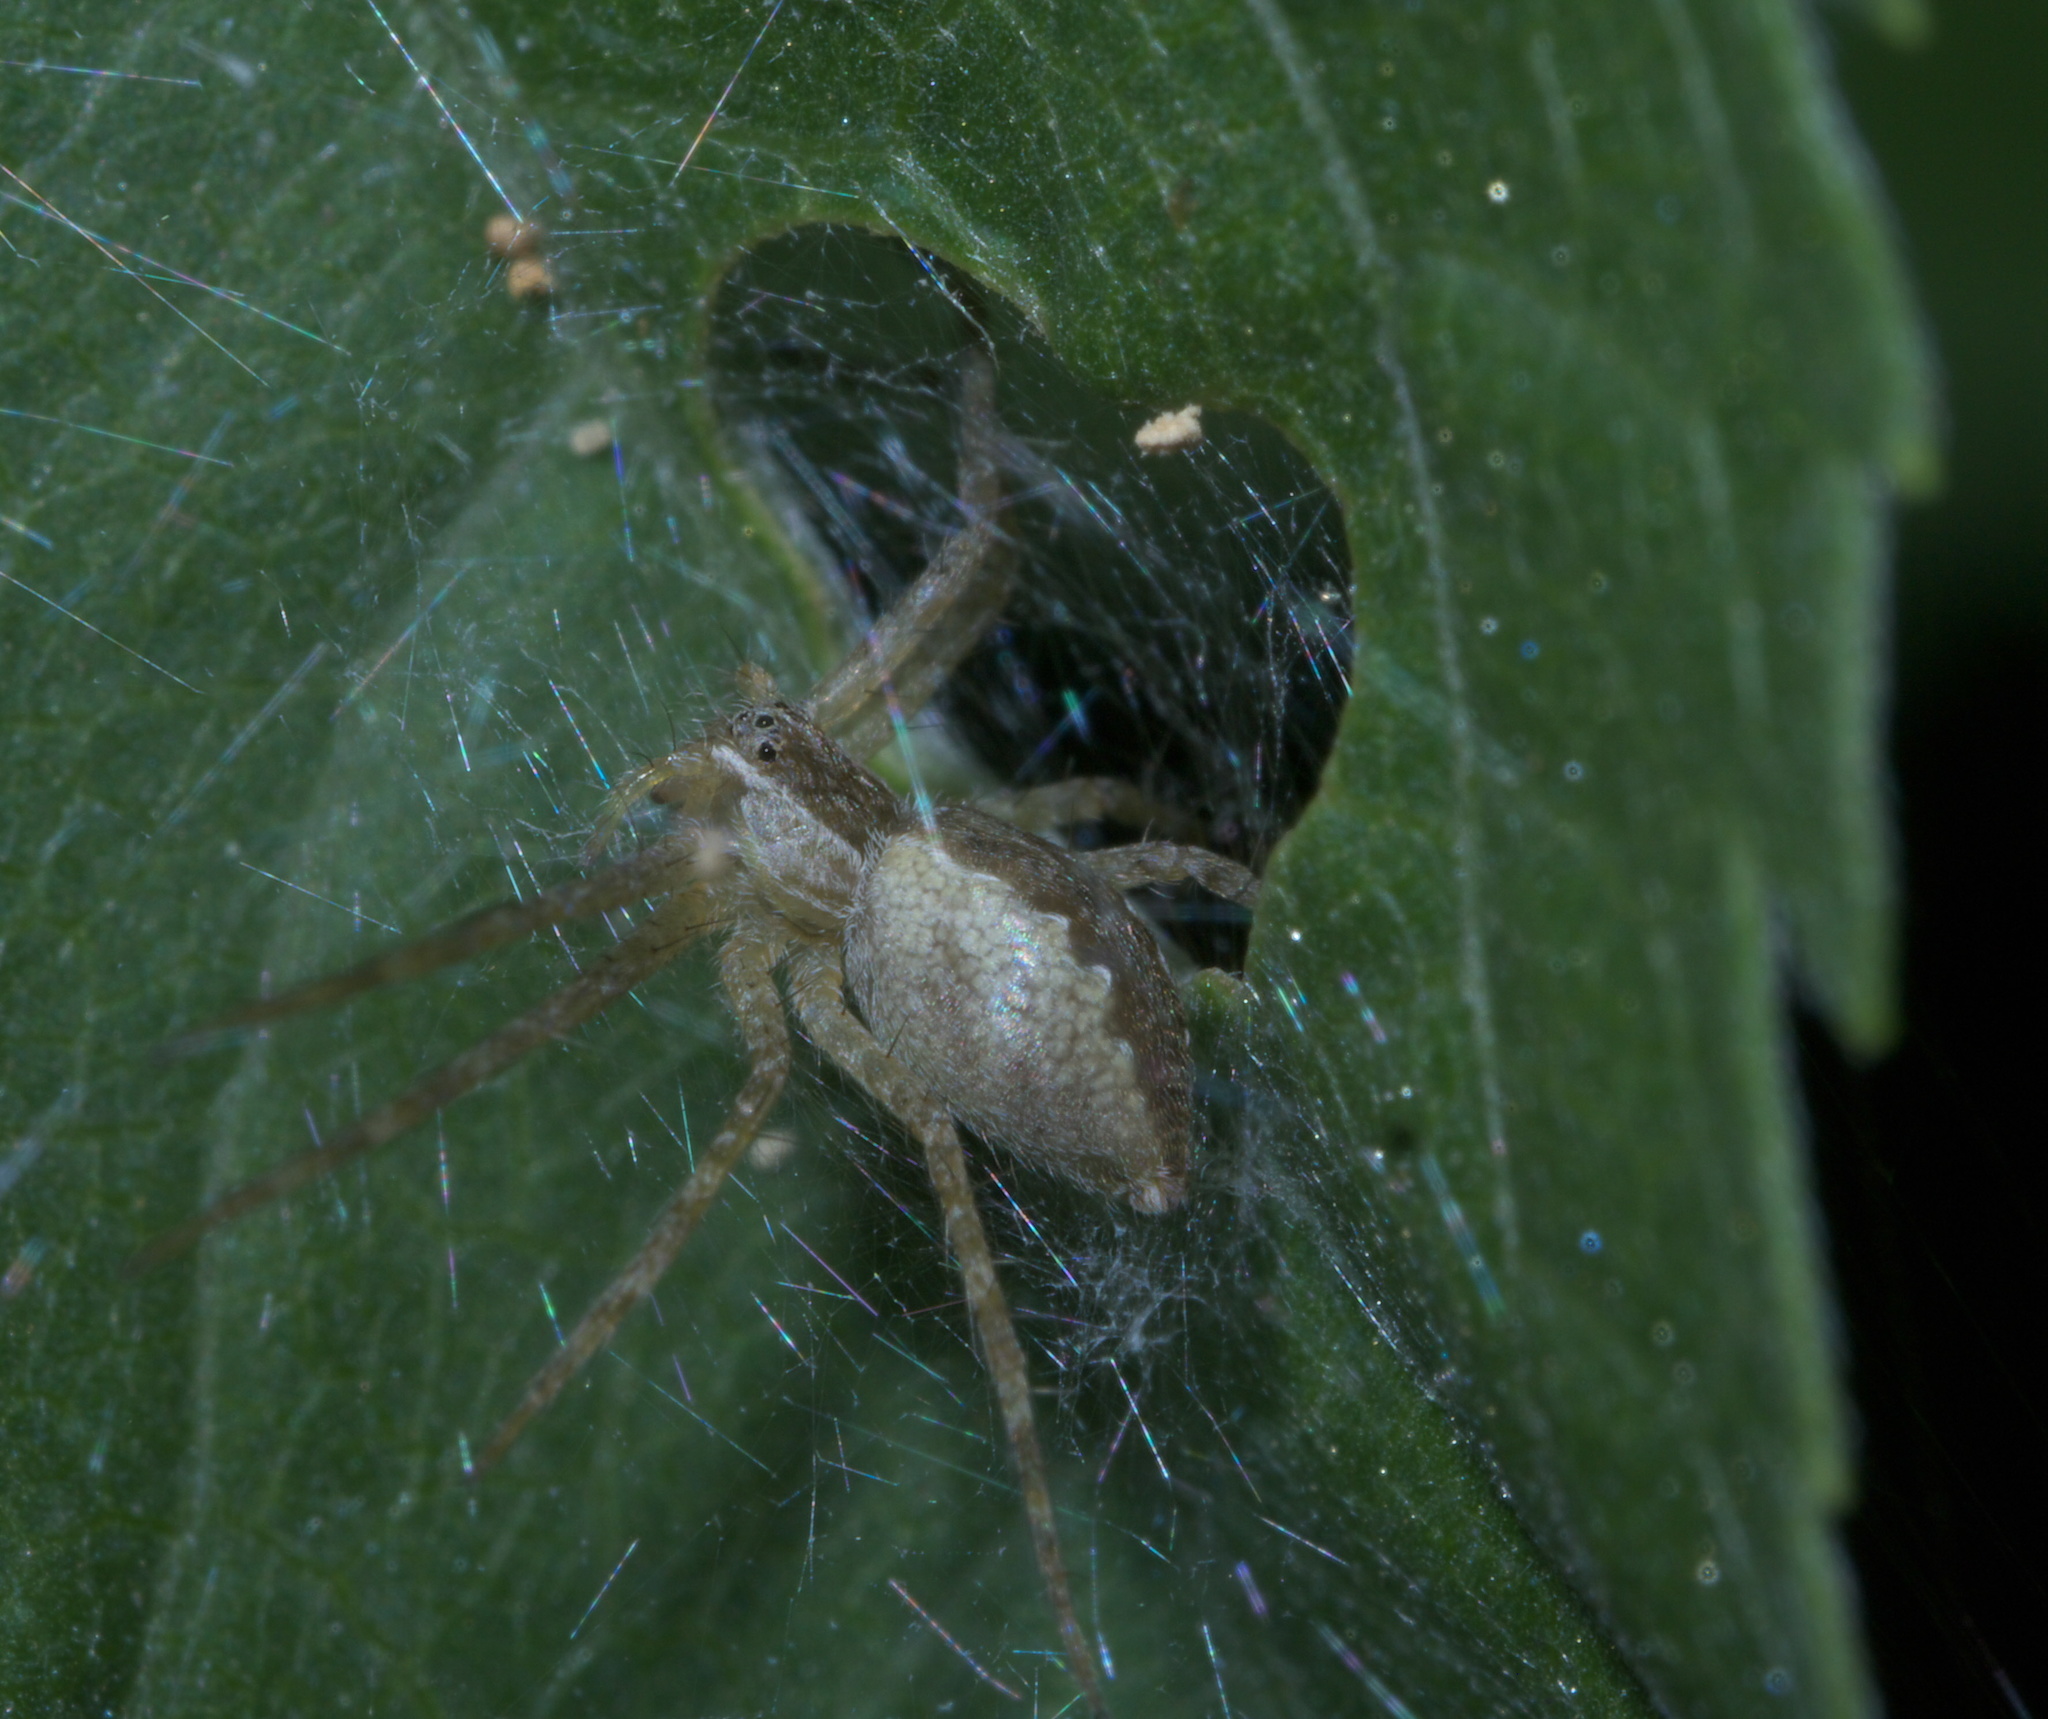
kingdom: Animalia
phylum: Arthropoda
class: Arachnida
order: Araneae
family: Pisauridae
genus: Pisaurina
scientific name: Pisaurina mira
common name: American nursery web spider
